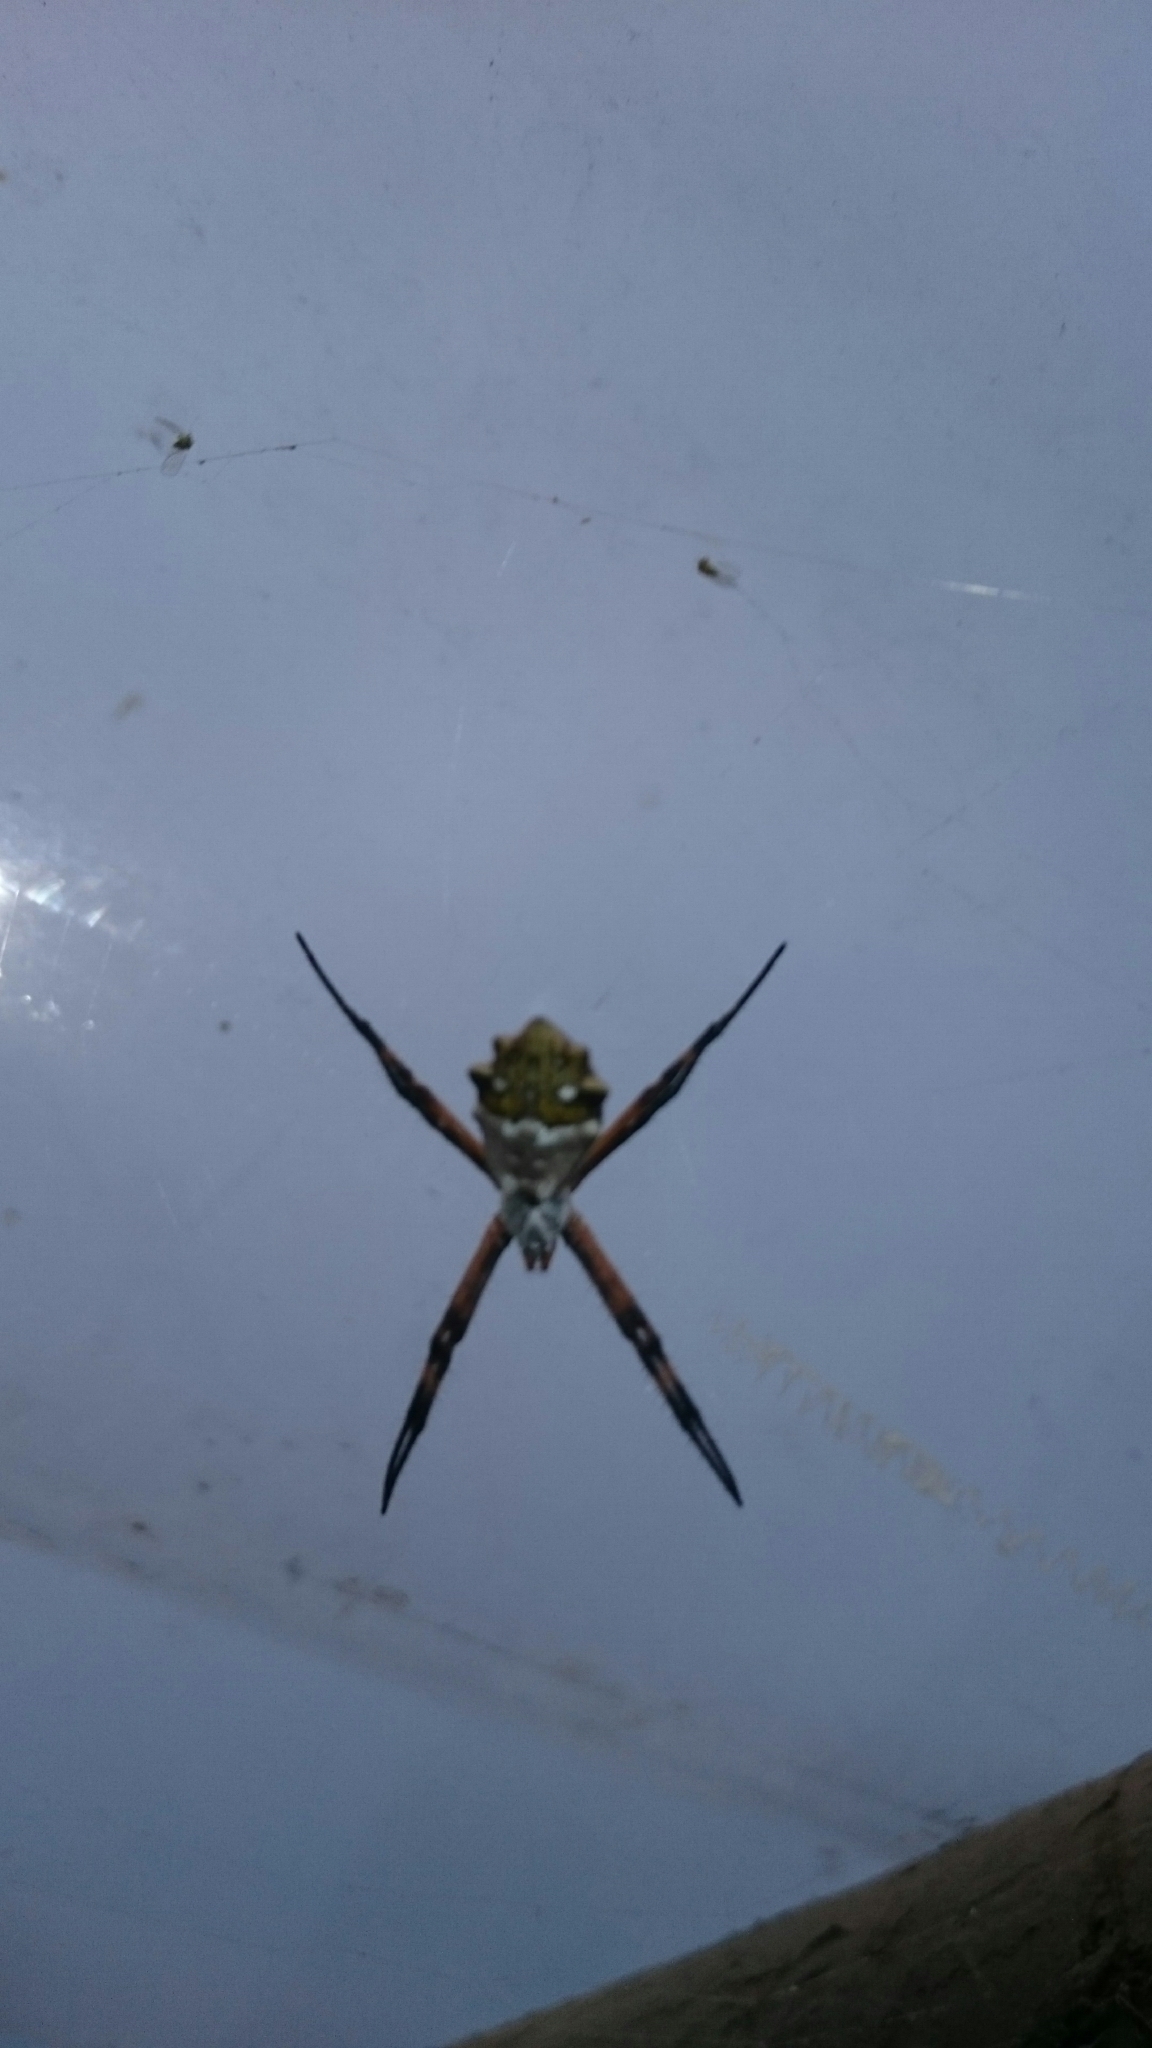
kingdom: Animalia
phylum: Arthropoda
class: Arachnida
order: Araneae
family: Araneidae
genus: Argiope
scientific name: Argiope argentata
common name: Orb weavers
